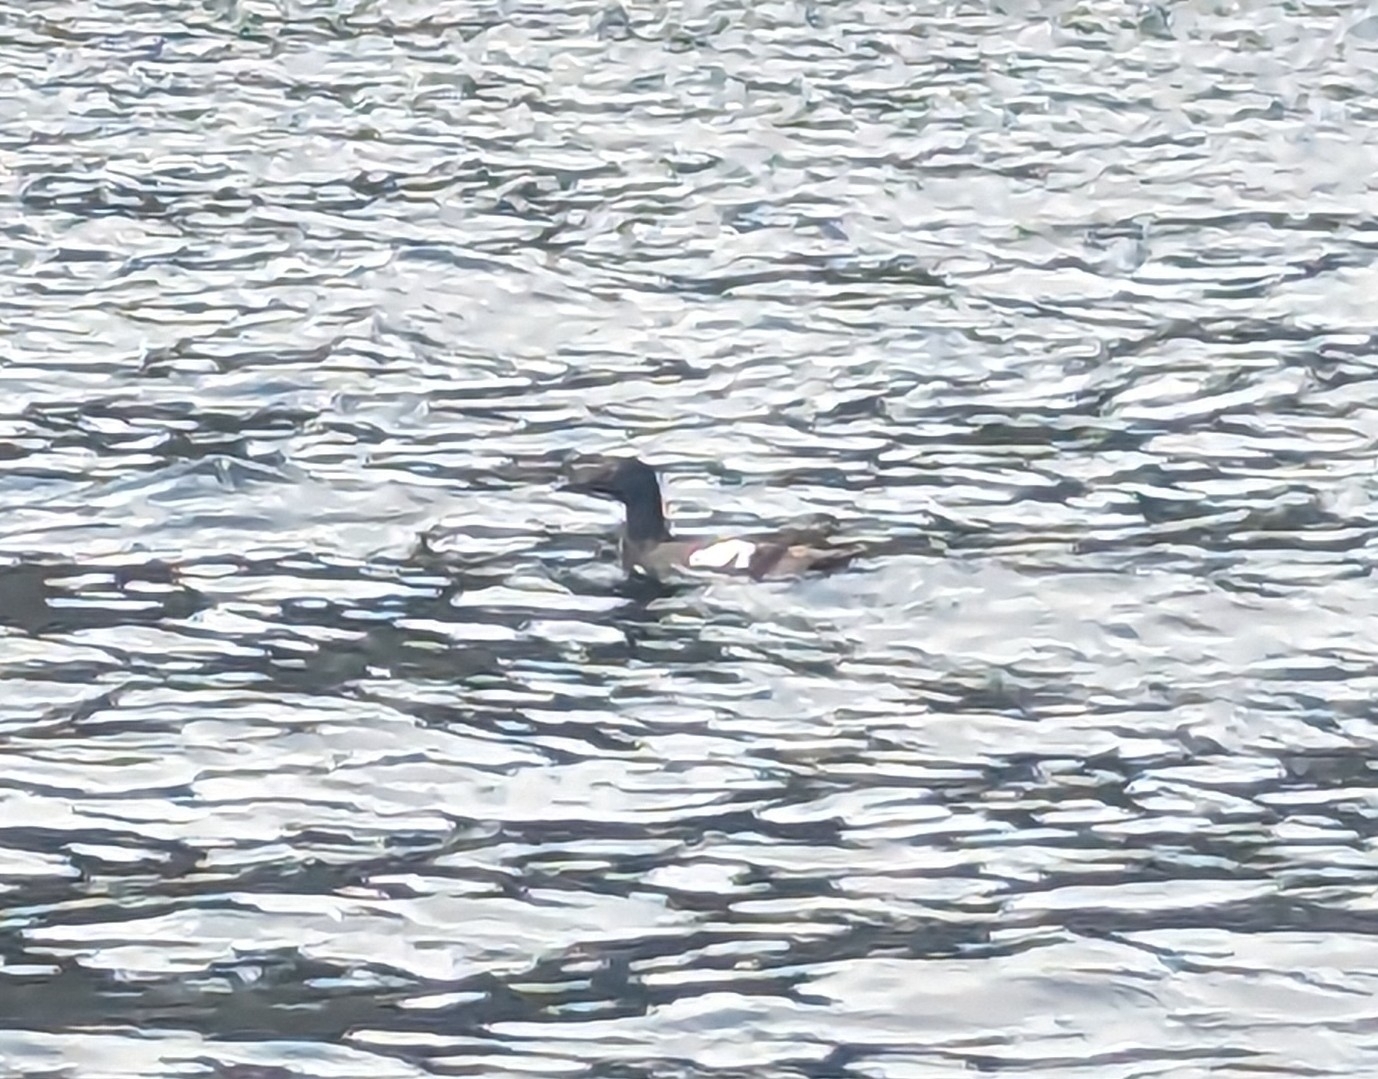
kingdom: Animalia
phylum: Chordata
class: Aves
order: Charadriiformes
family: Alcidae
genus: Cepphus
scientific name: Cepphus columba
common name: Pigeon guillemot
